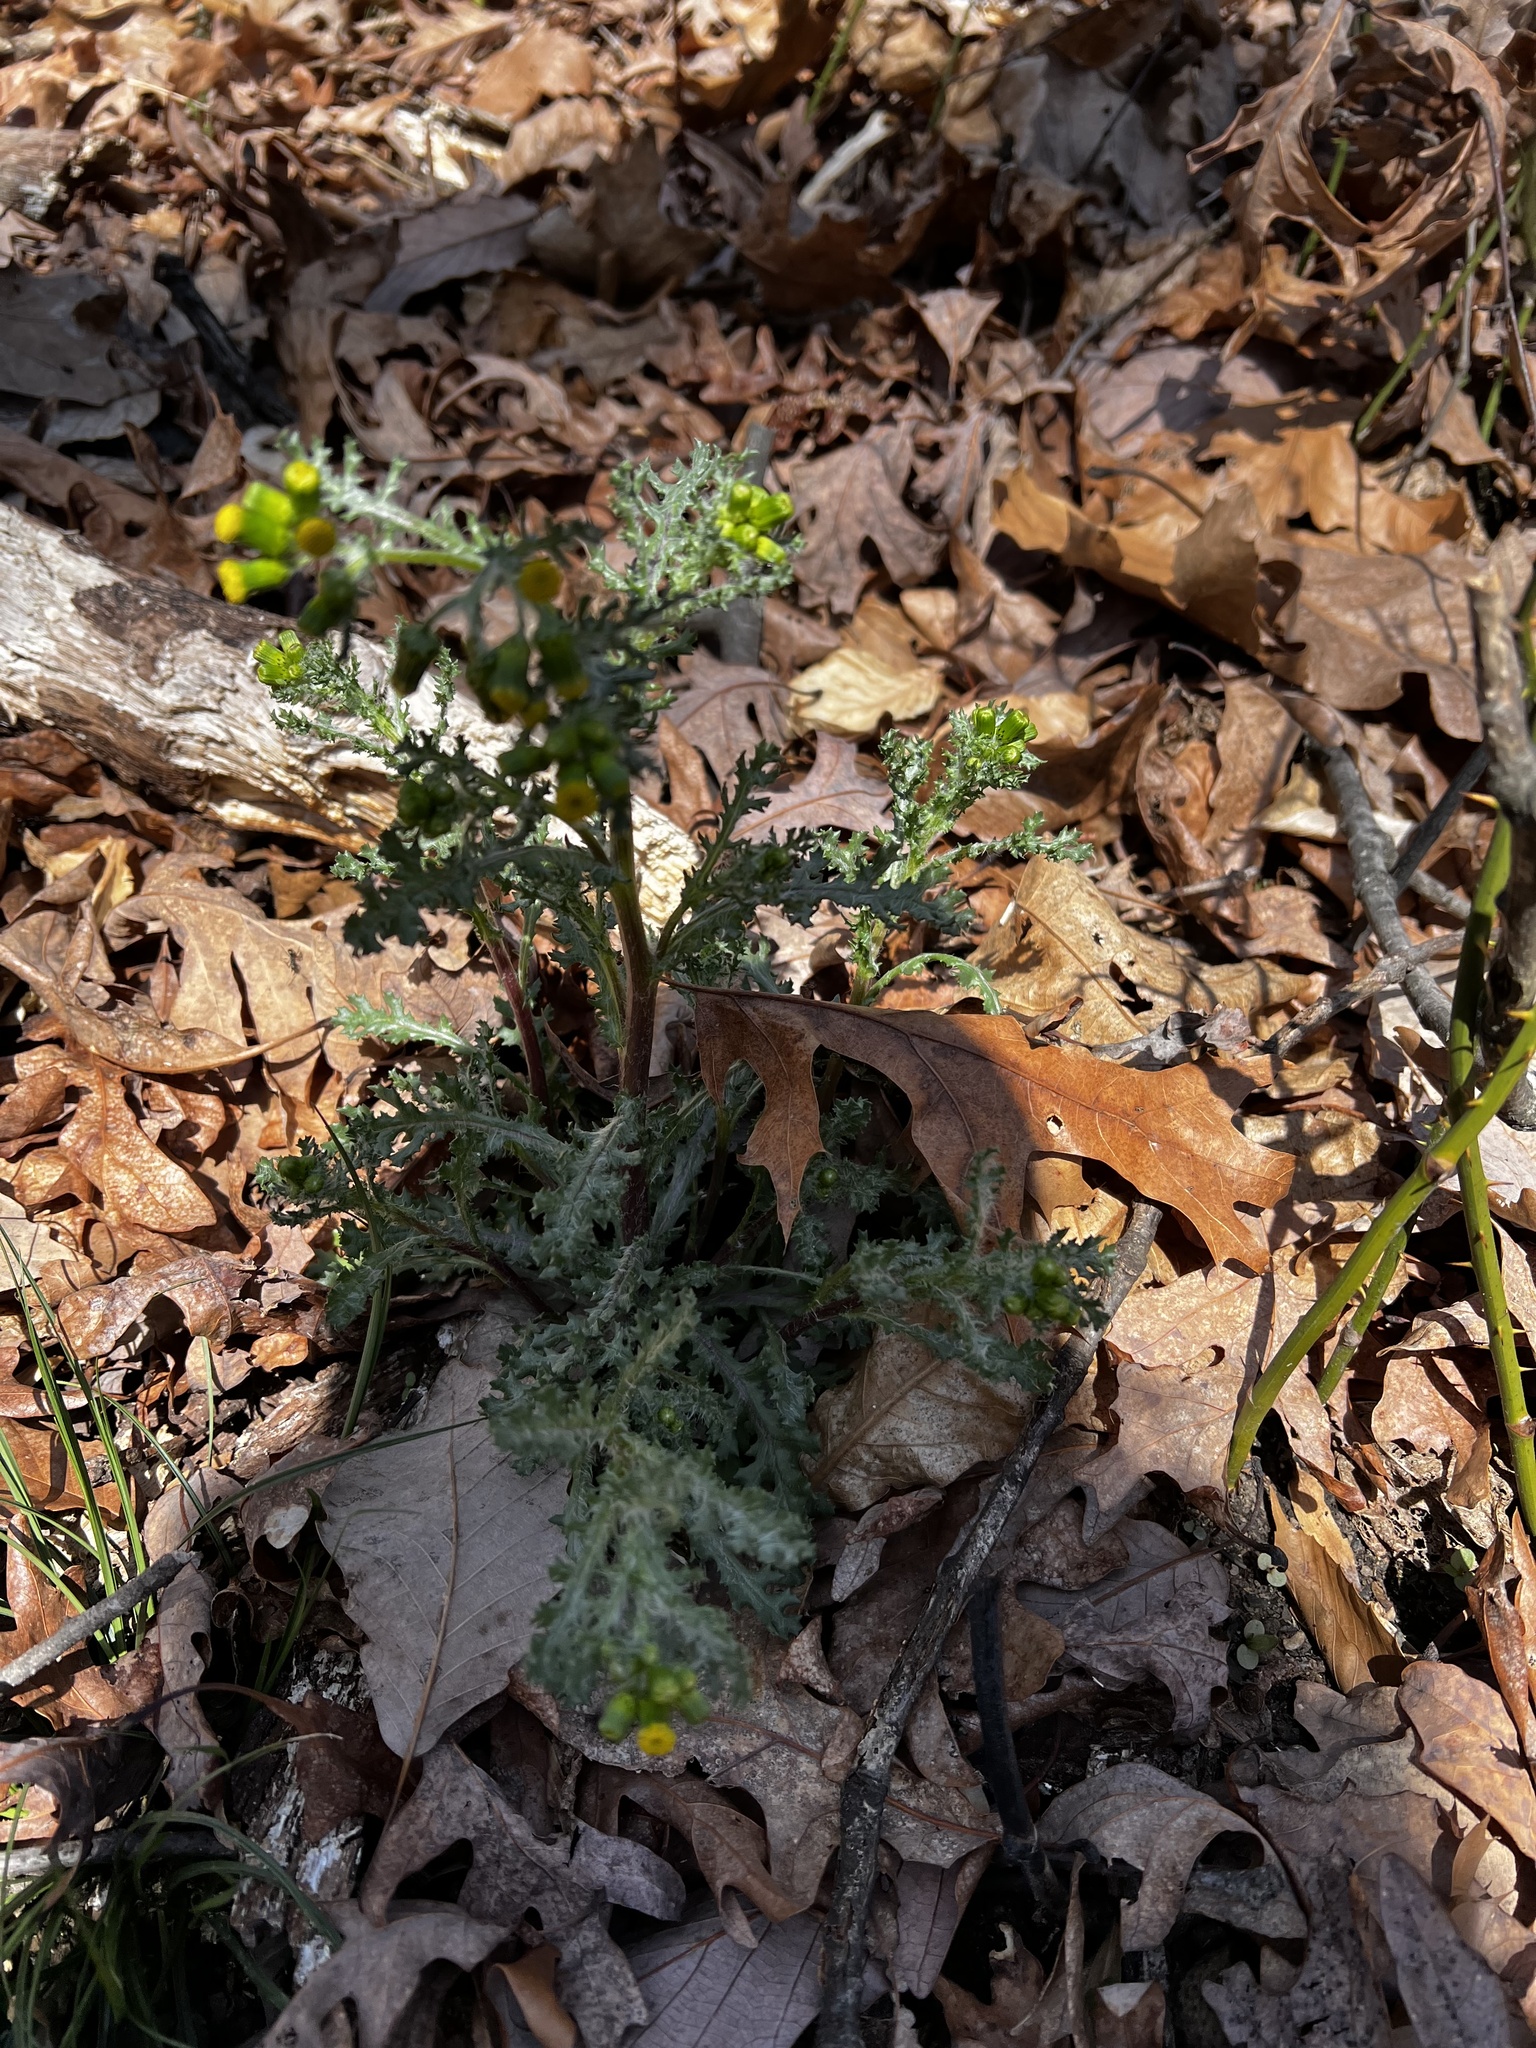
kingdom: Plantae
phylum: Tracheophyta
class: Magnoliopsida
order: Asterales
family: Asteraceae
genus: Senecio
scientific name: Senecio vulgaris
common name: Old-man-in-the-spring
